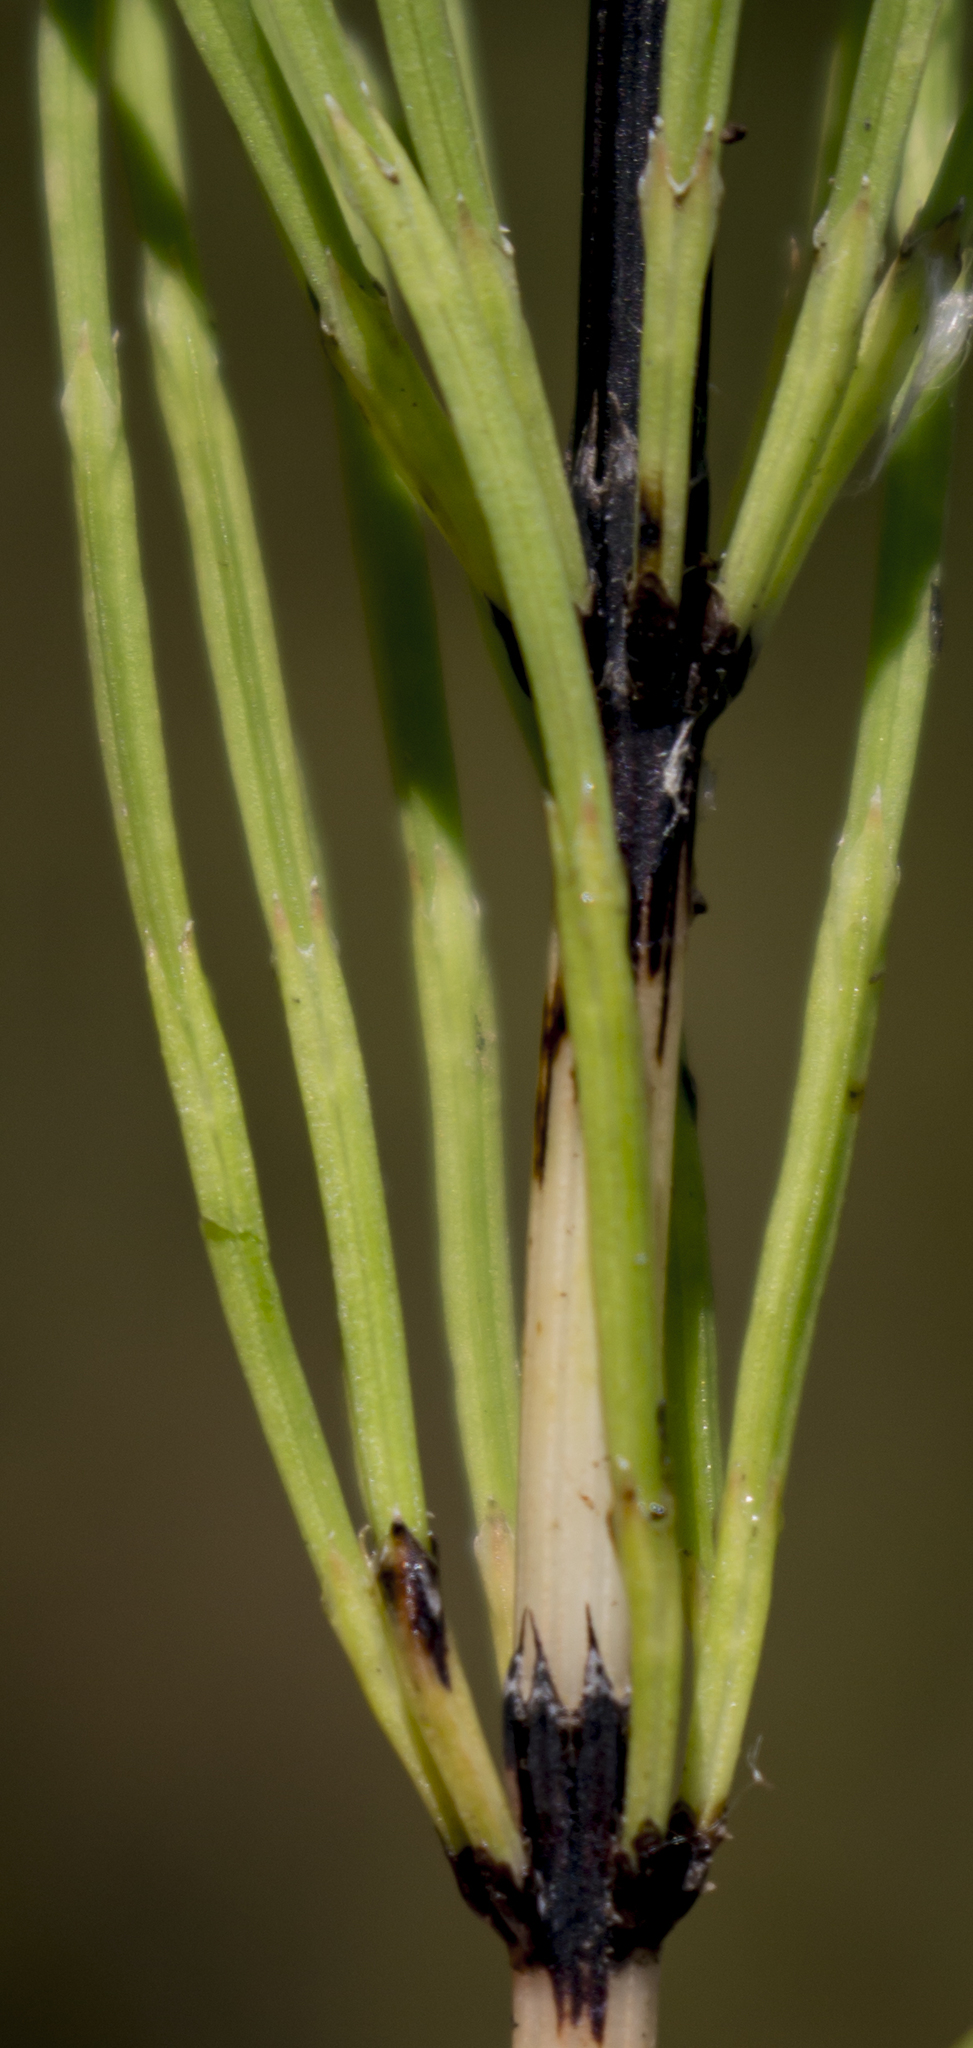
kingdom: Plantae
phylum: Tracheophyta
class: Polypodiopsida
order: Equisetales
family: Equisetaceae
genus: Equisetum
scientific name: Equisetum arvense
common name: Field horsetail
